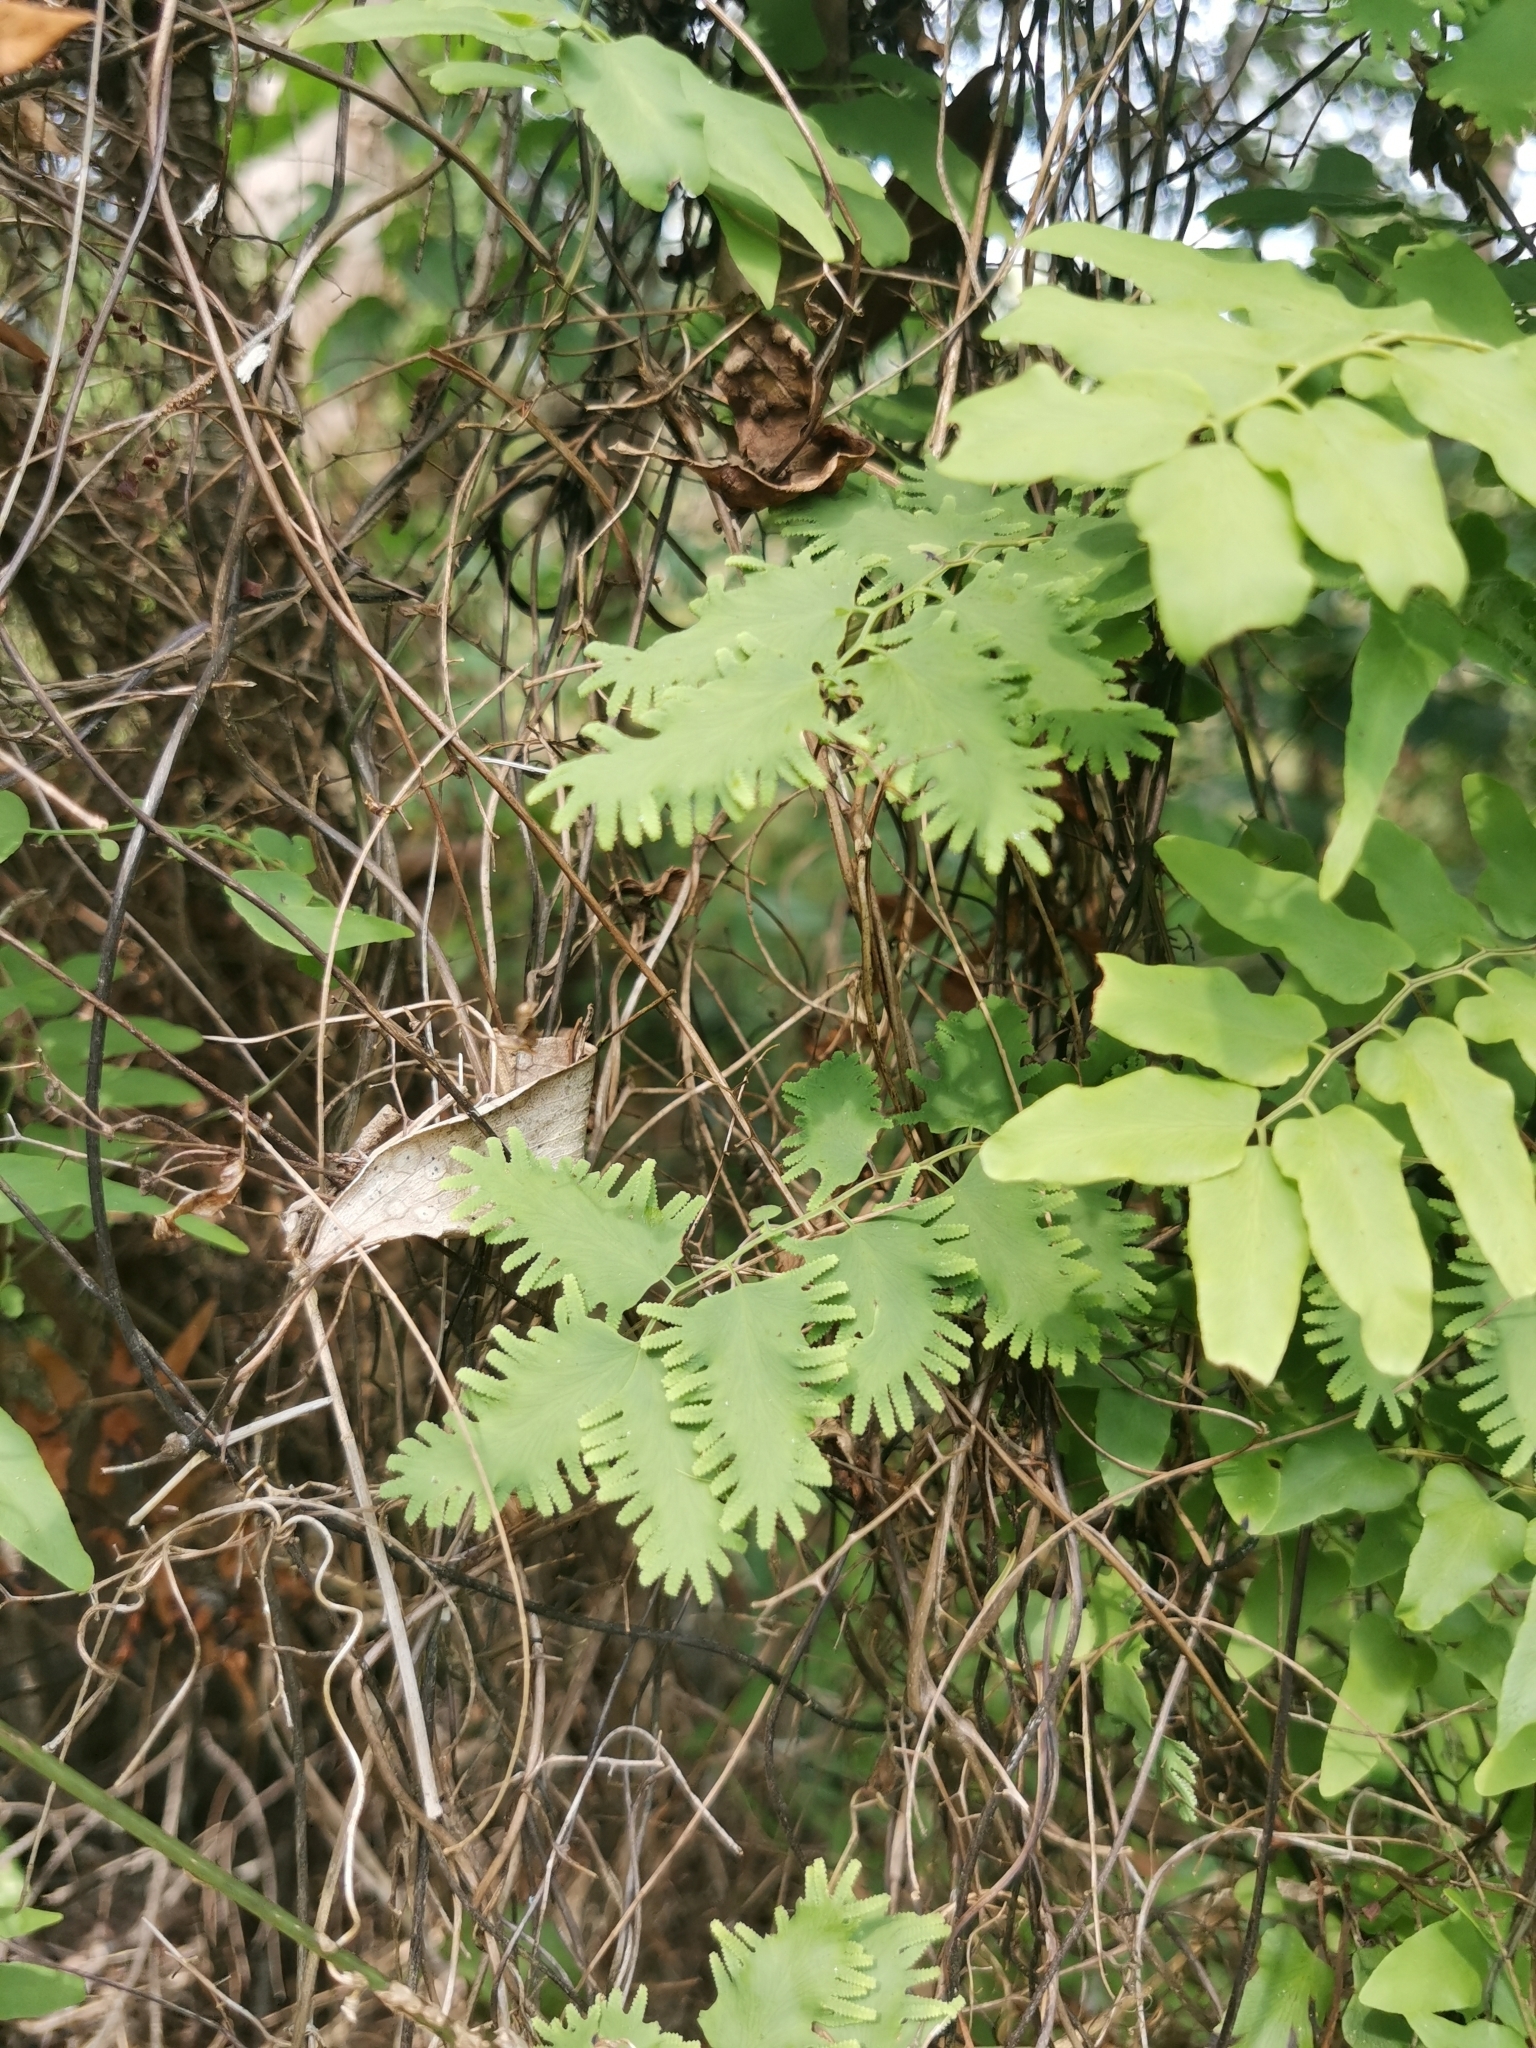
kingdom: Plantae
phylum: Tracheophyta
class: Polypodiopsida
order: Schizaeales
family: Lygodiaceae
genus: Lygodium
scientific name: Lygodium microphyllum
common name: Small-leaf climbing fern
